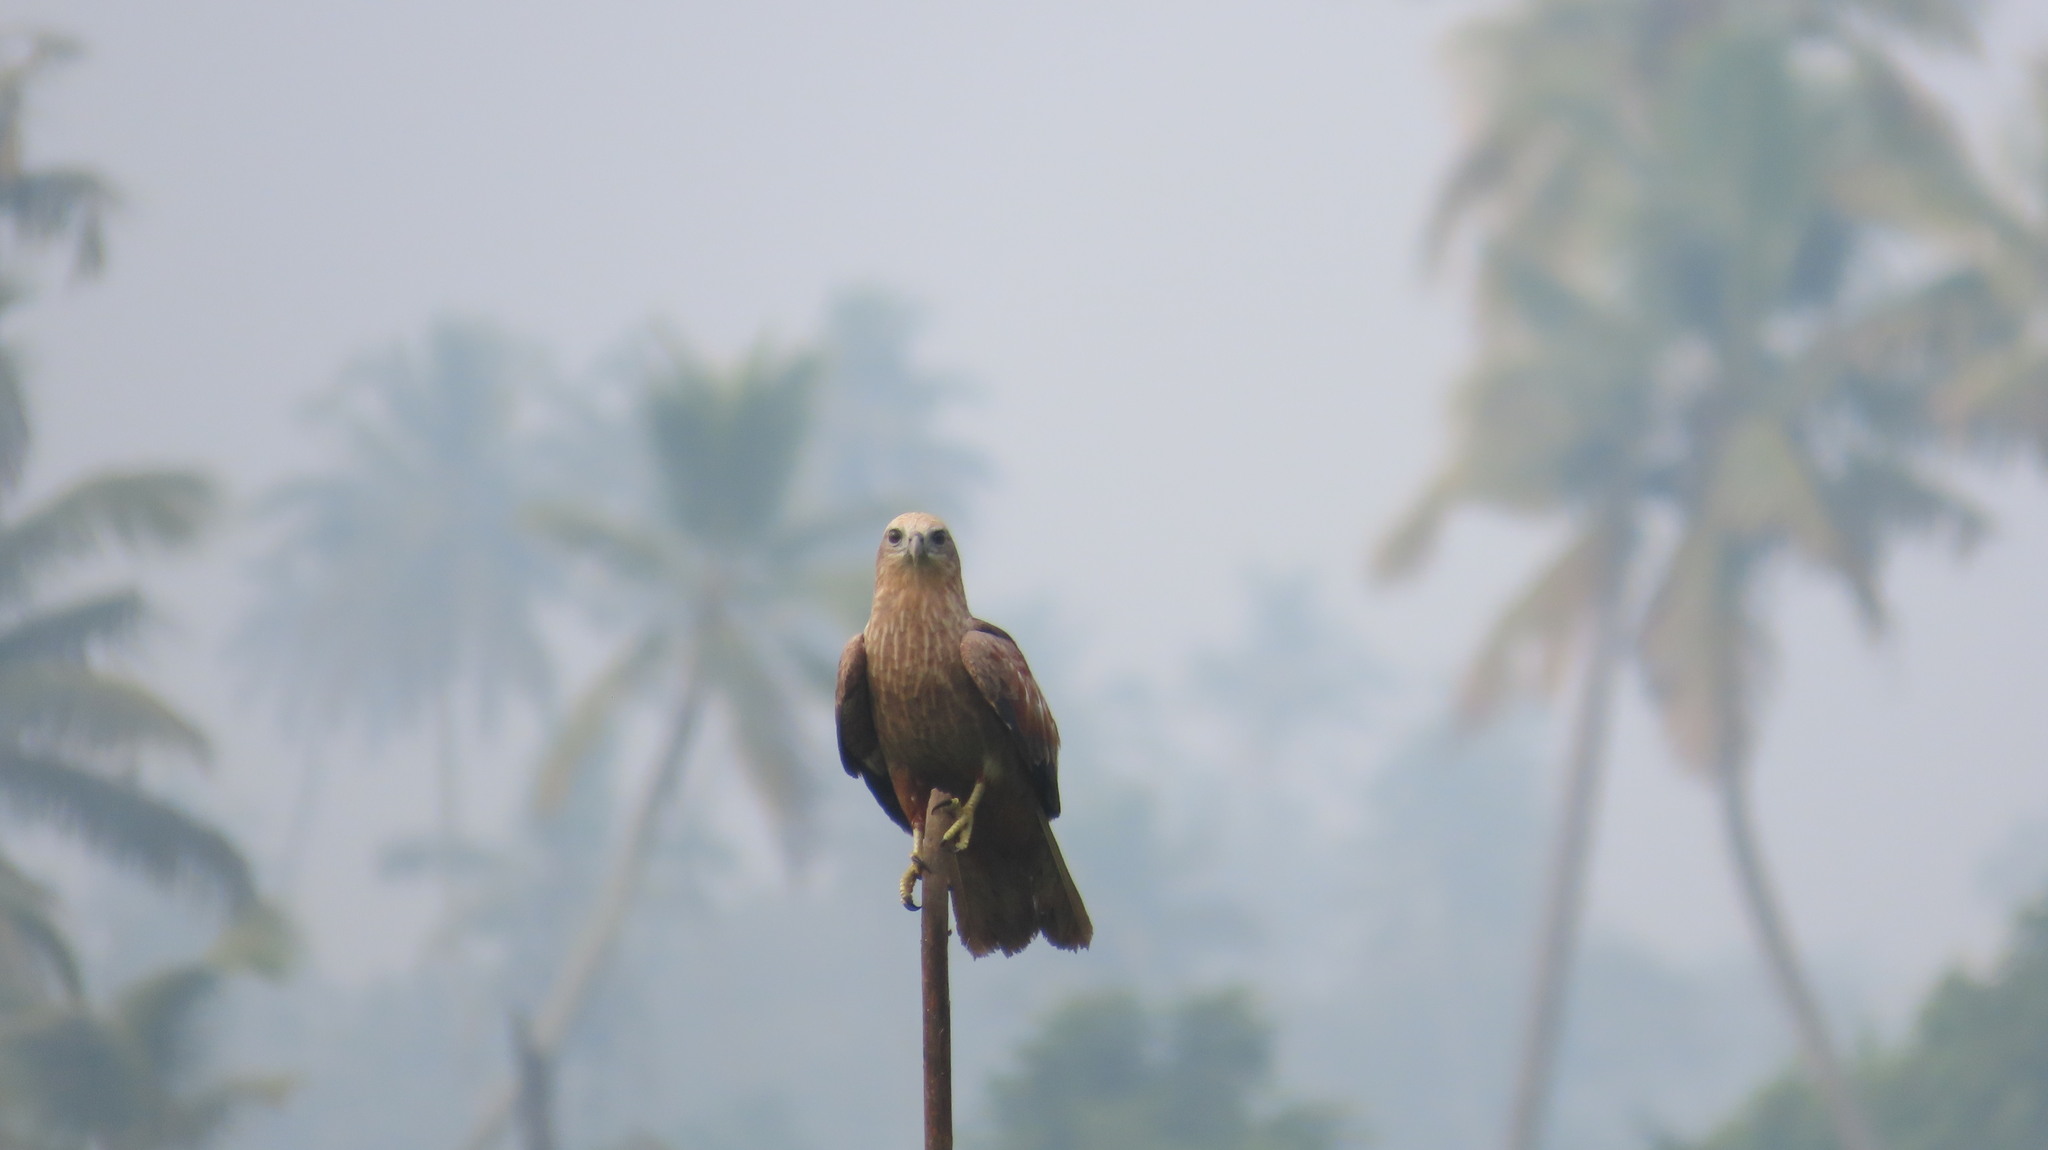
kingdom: Animalia
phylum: Chordata
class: Aves
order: Accipitriformes
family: Accipitridae
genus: Haliastur
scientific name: Haliastur indus
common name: Brahminy kite
